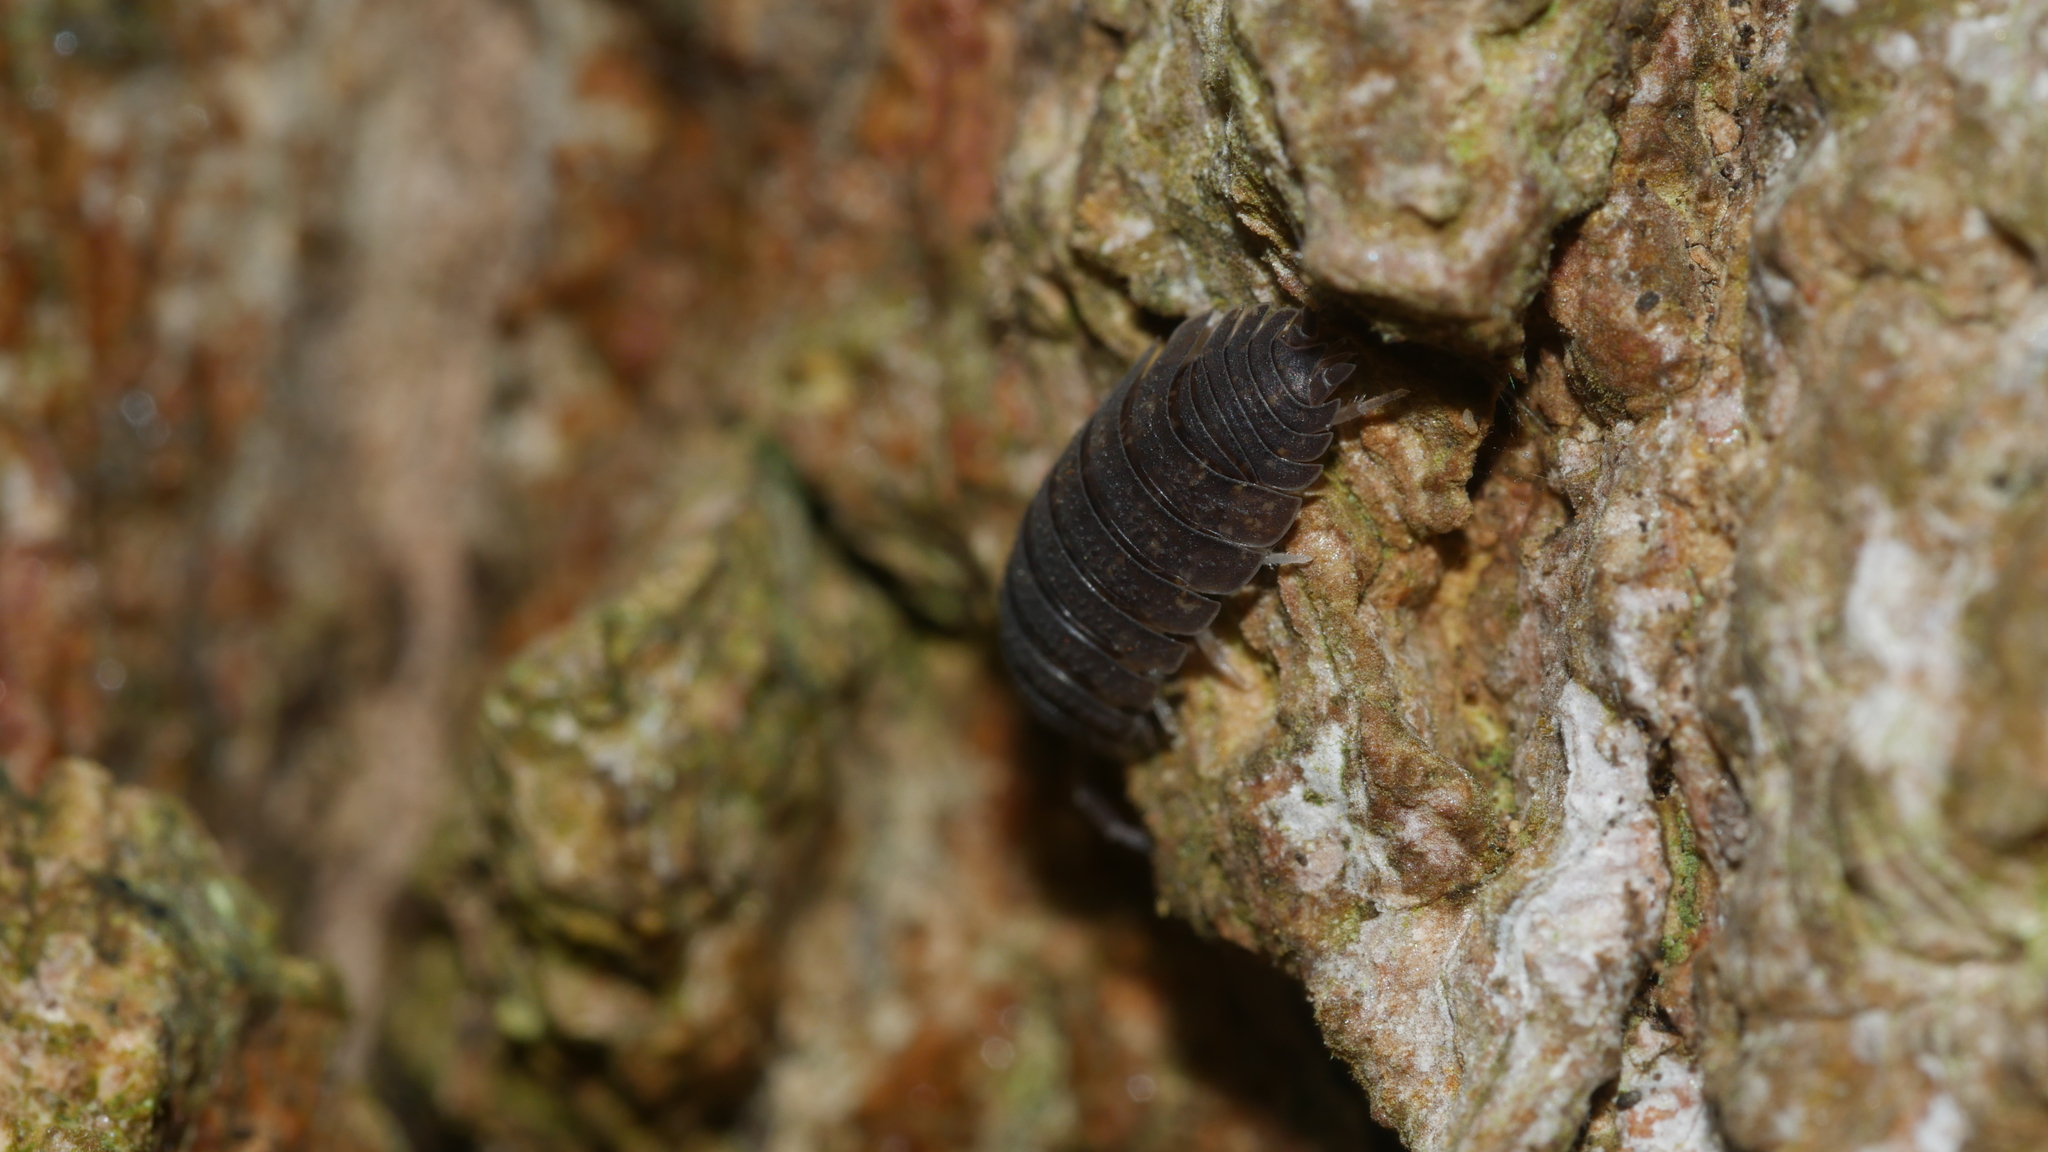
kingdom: Animalia
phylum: Arthropoda
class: Malacostraca
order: Isopoda
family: Porcellionidae
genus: Porcellio
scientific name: Porcellio scaber
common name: Common rough woodlouse
